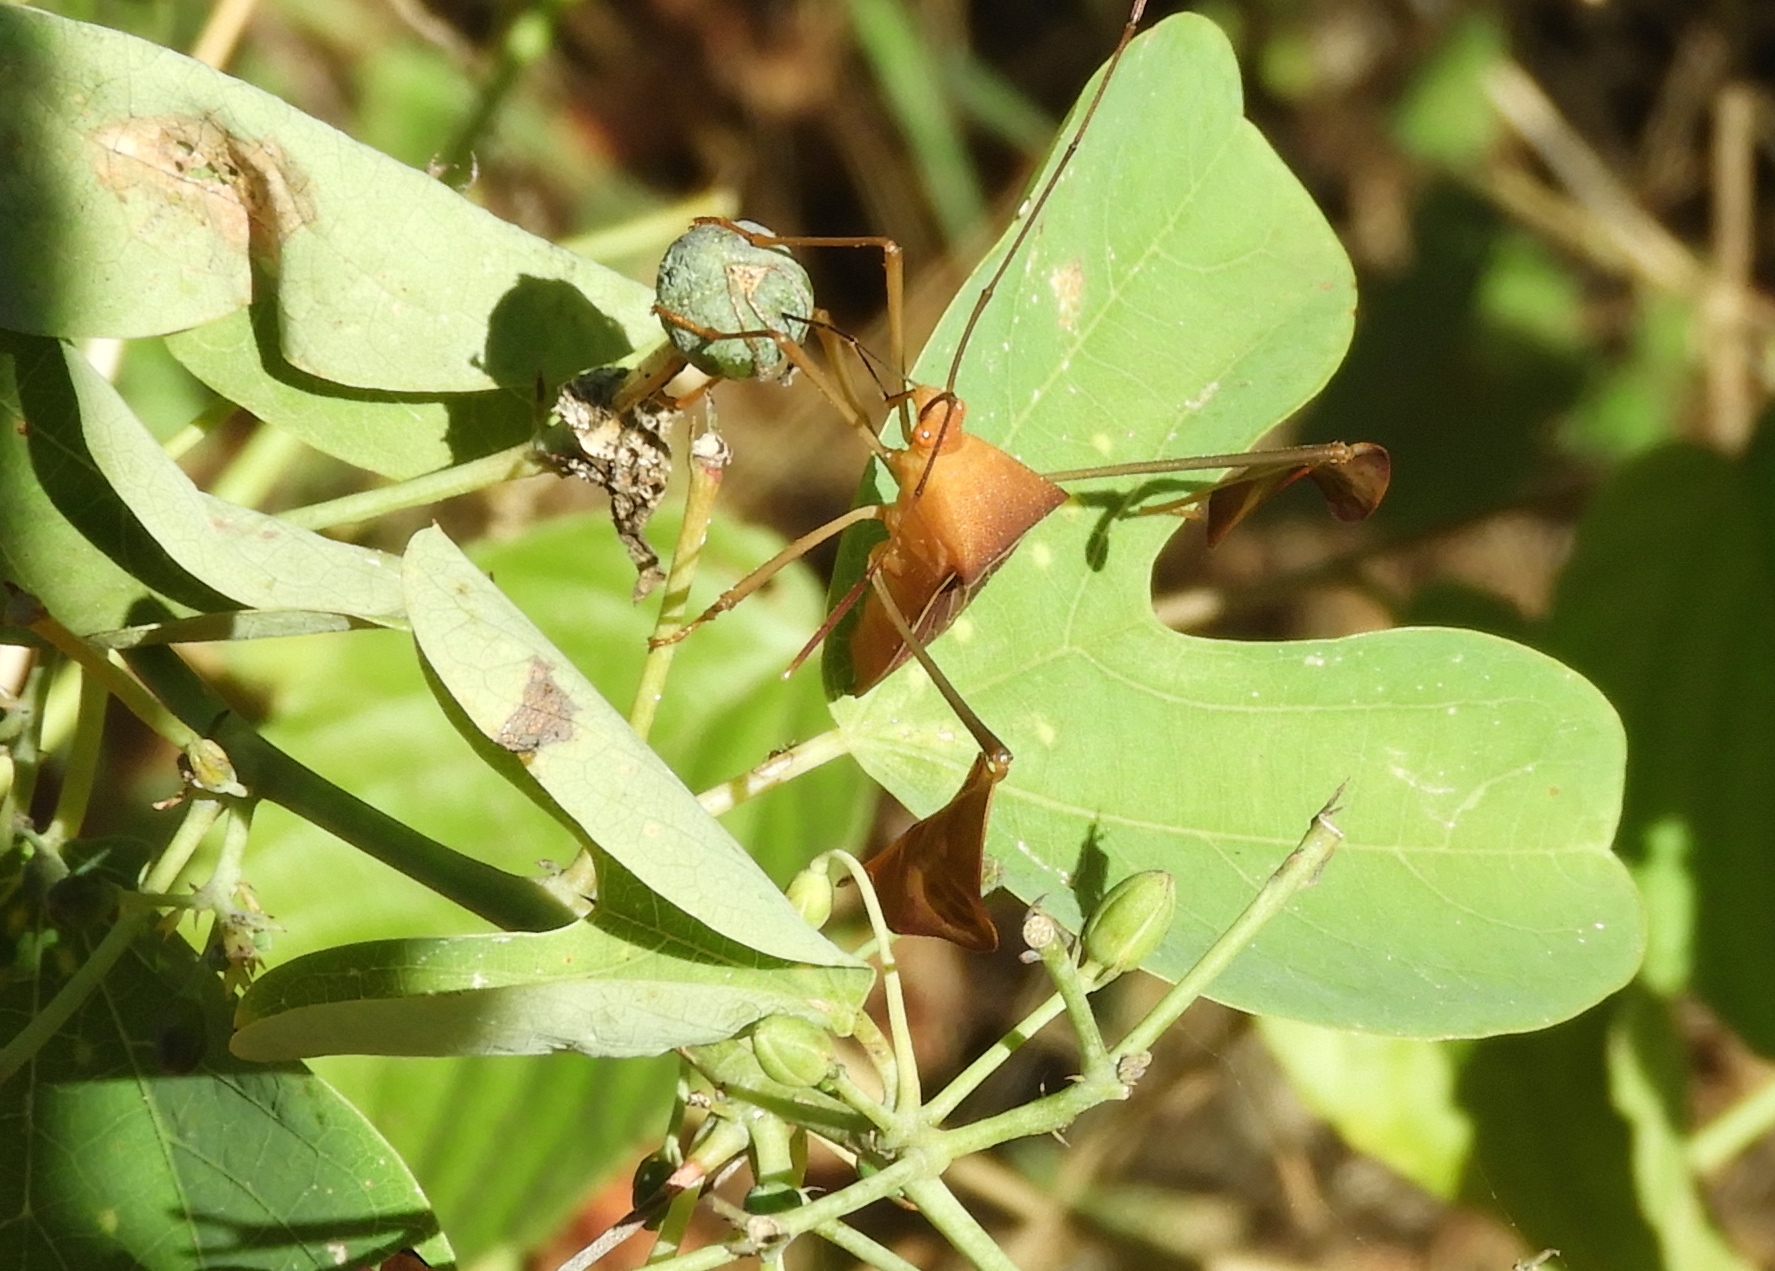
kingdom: Animalia
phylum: Arthropoda
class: Insecta
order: Hemiptera
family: Coreidae
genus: Bitta
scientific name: Bitta
